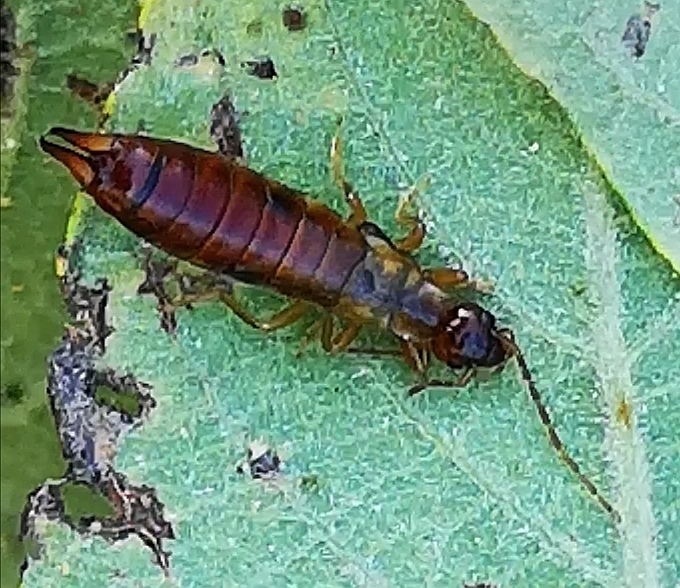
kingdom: Animalia
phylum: Arthropoda
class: Insecta
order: Dermaptera
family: Forficulidae
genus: Apterygida
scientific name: Apterygida albipennis
